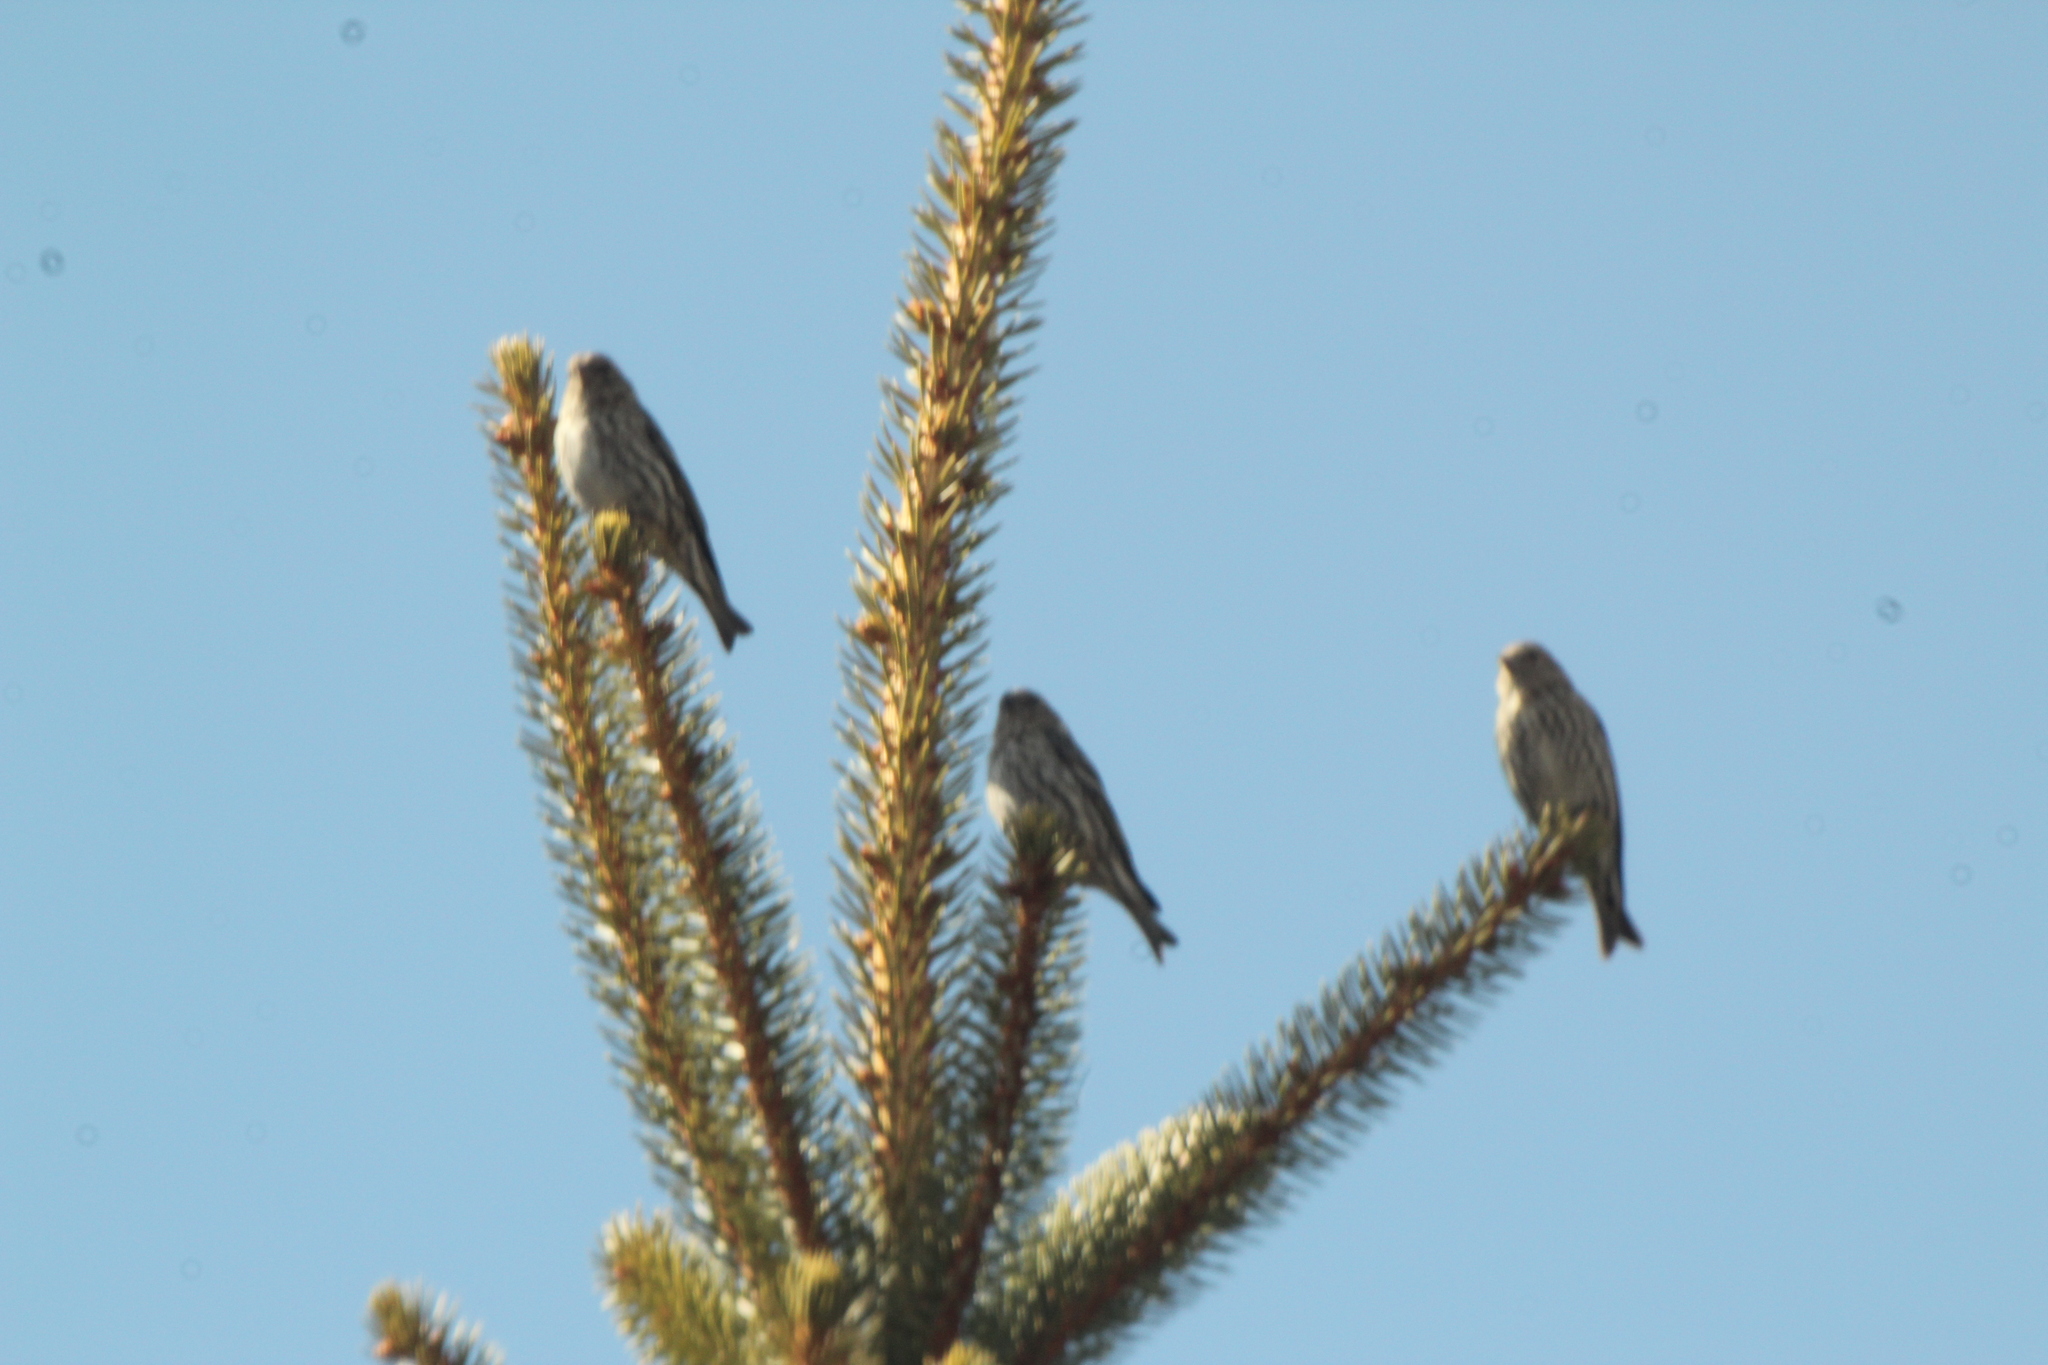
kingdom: Animalia
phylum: Chordata
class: Aves
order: Passeriformes
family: Fringillidae
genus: Spinus
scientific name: Spinus pinus
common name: Pine siskin
